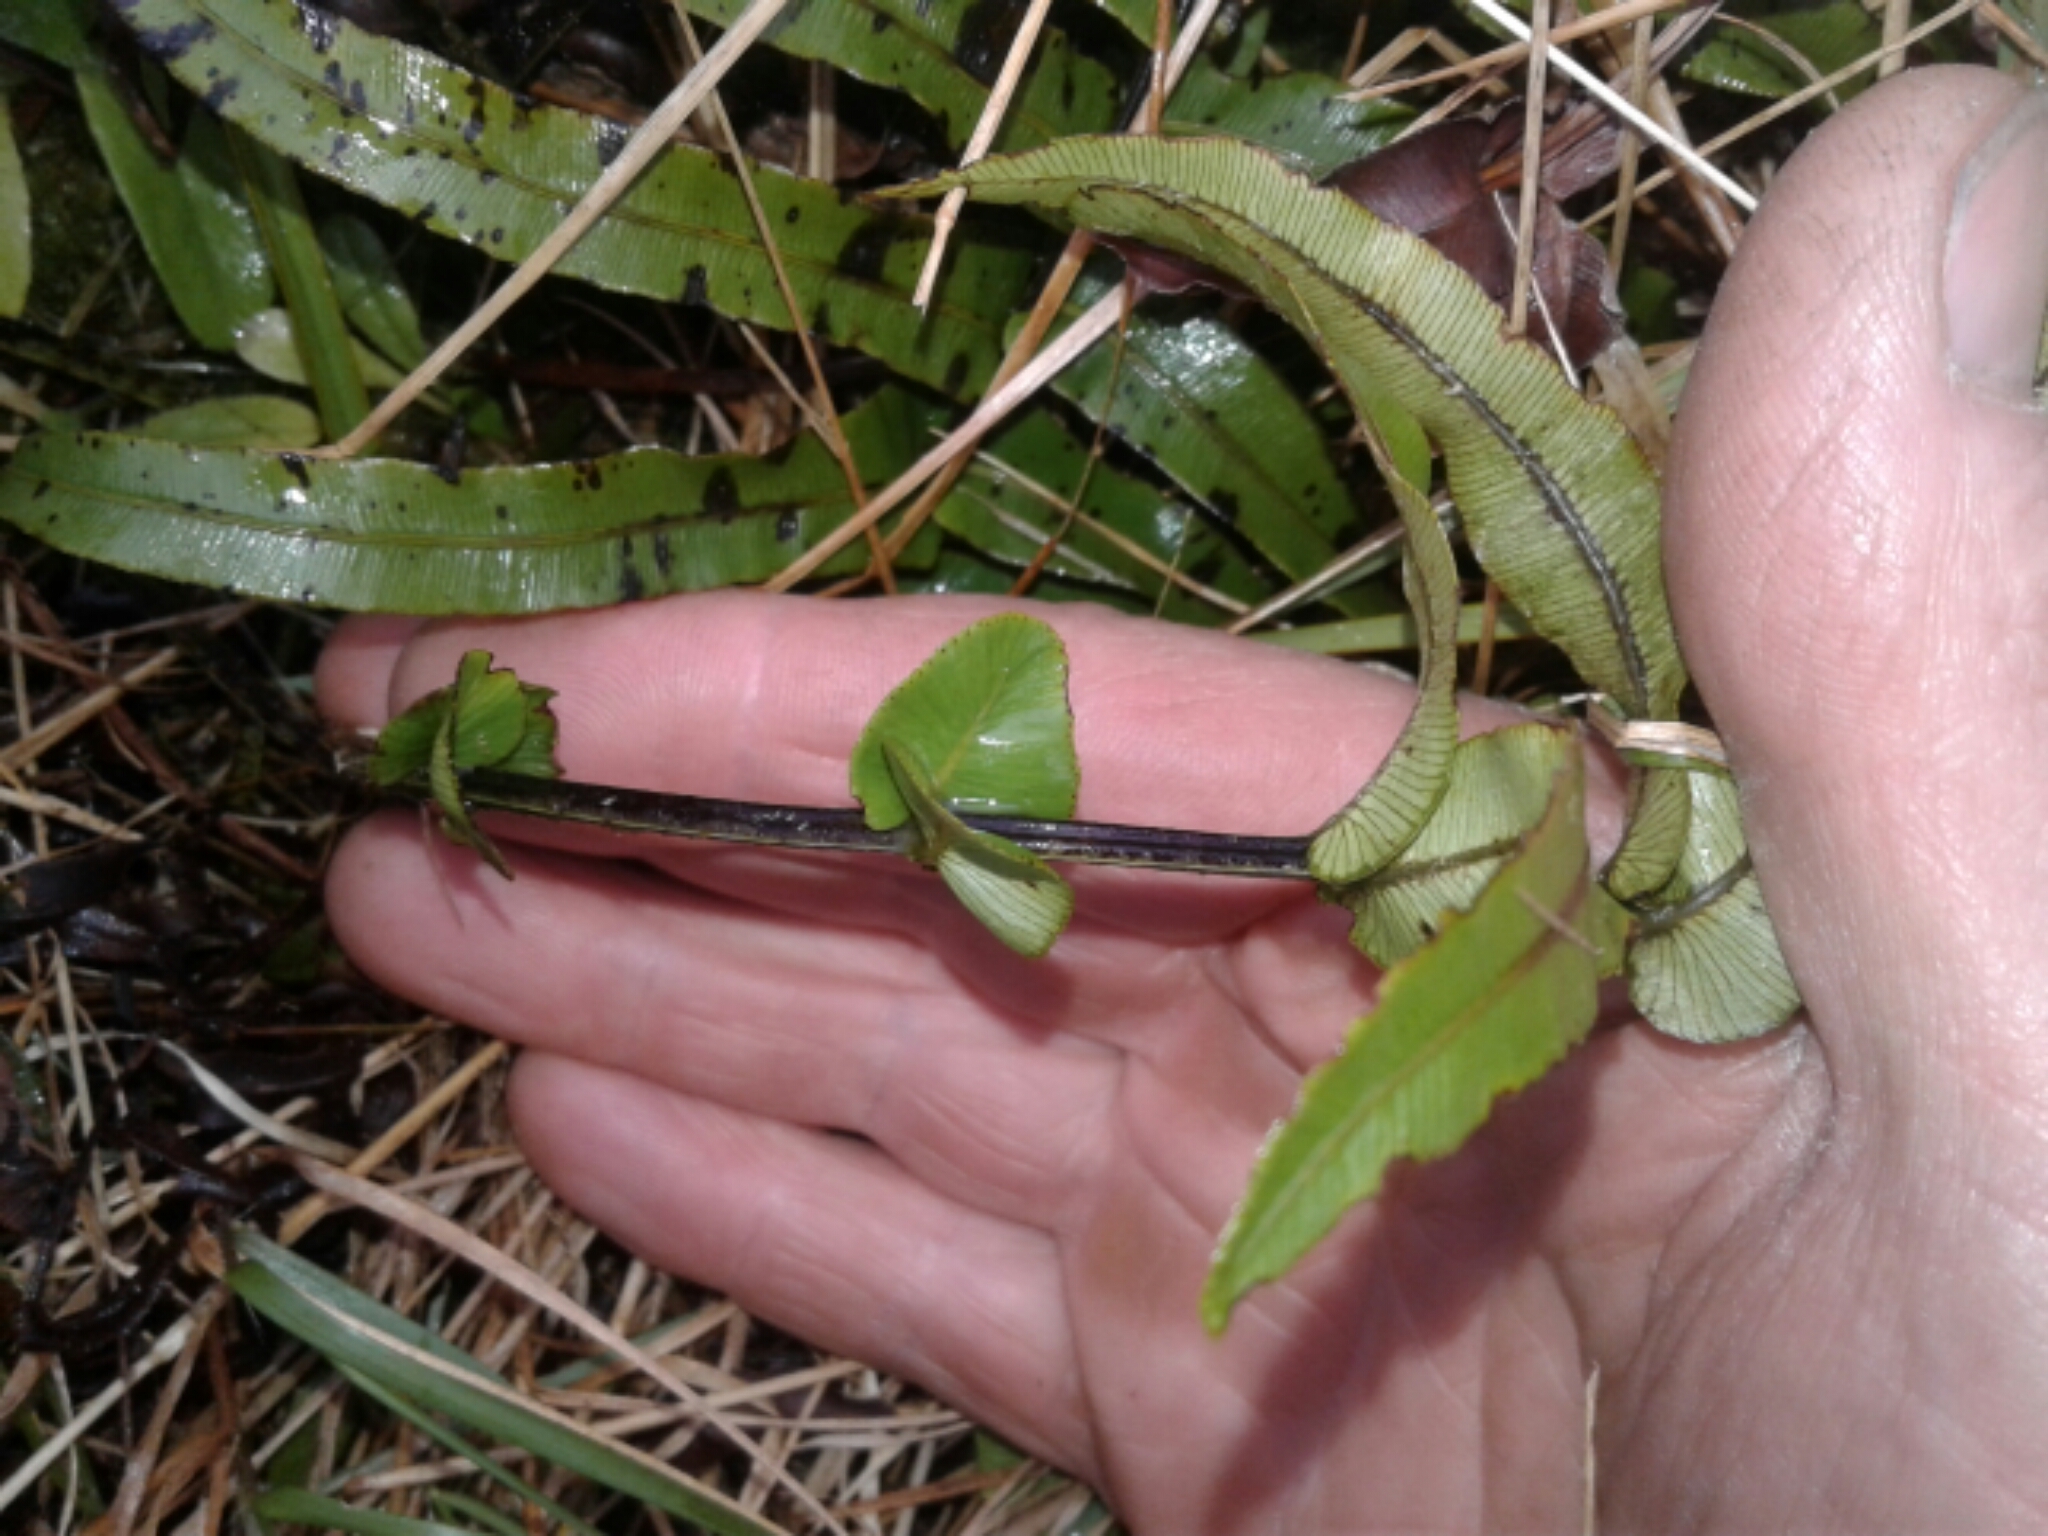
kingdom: Plantae
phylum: Tracheophyta
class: Polypodiopsida
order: Polypodiales
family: Blechnaceae
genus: Parablechnum
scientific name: Parablechnum minus
